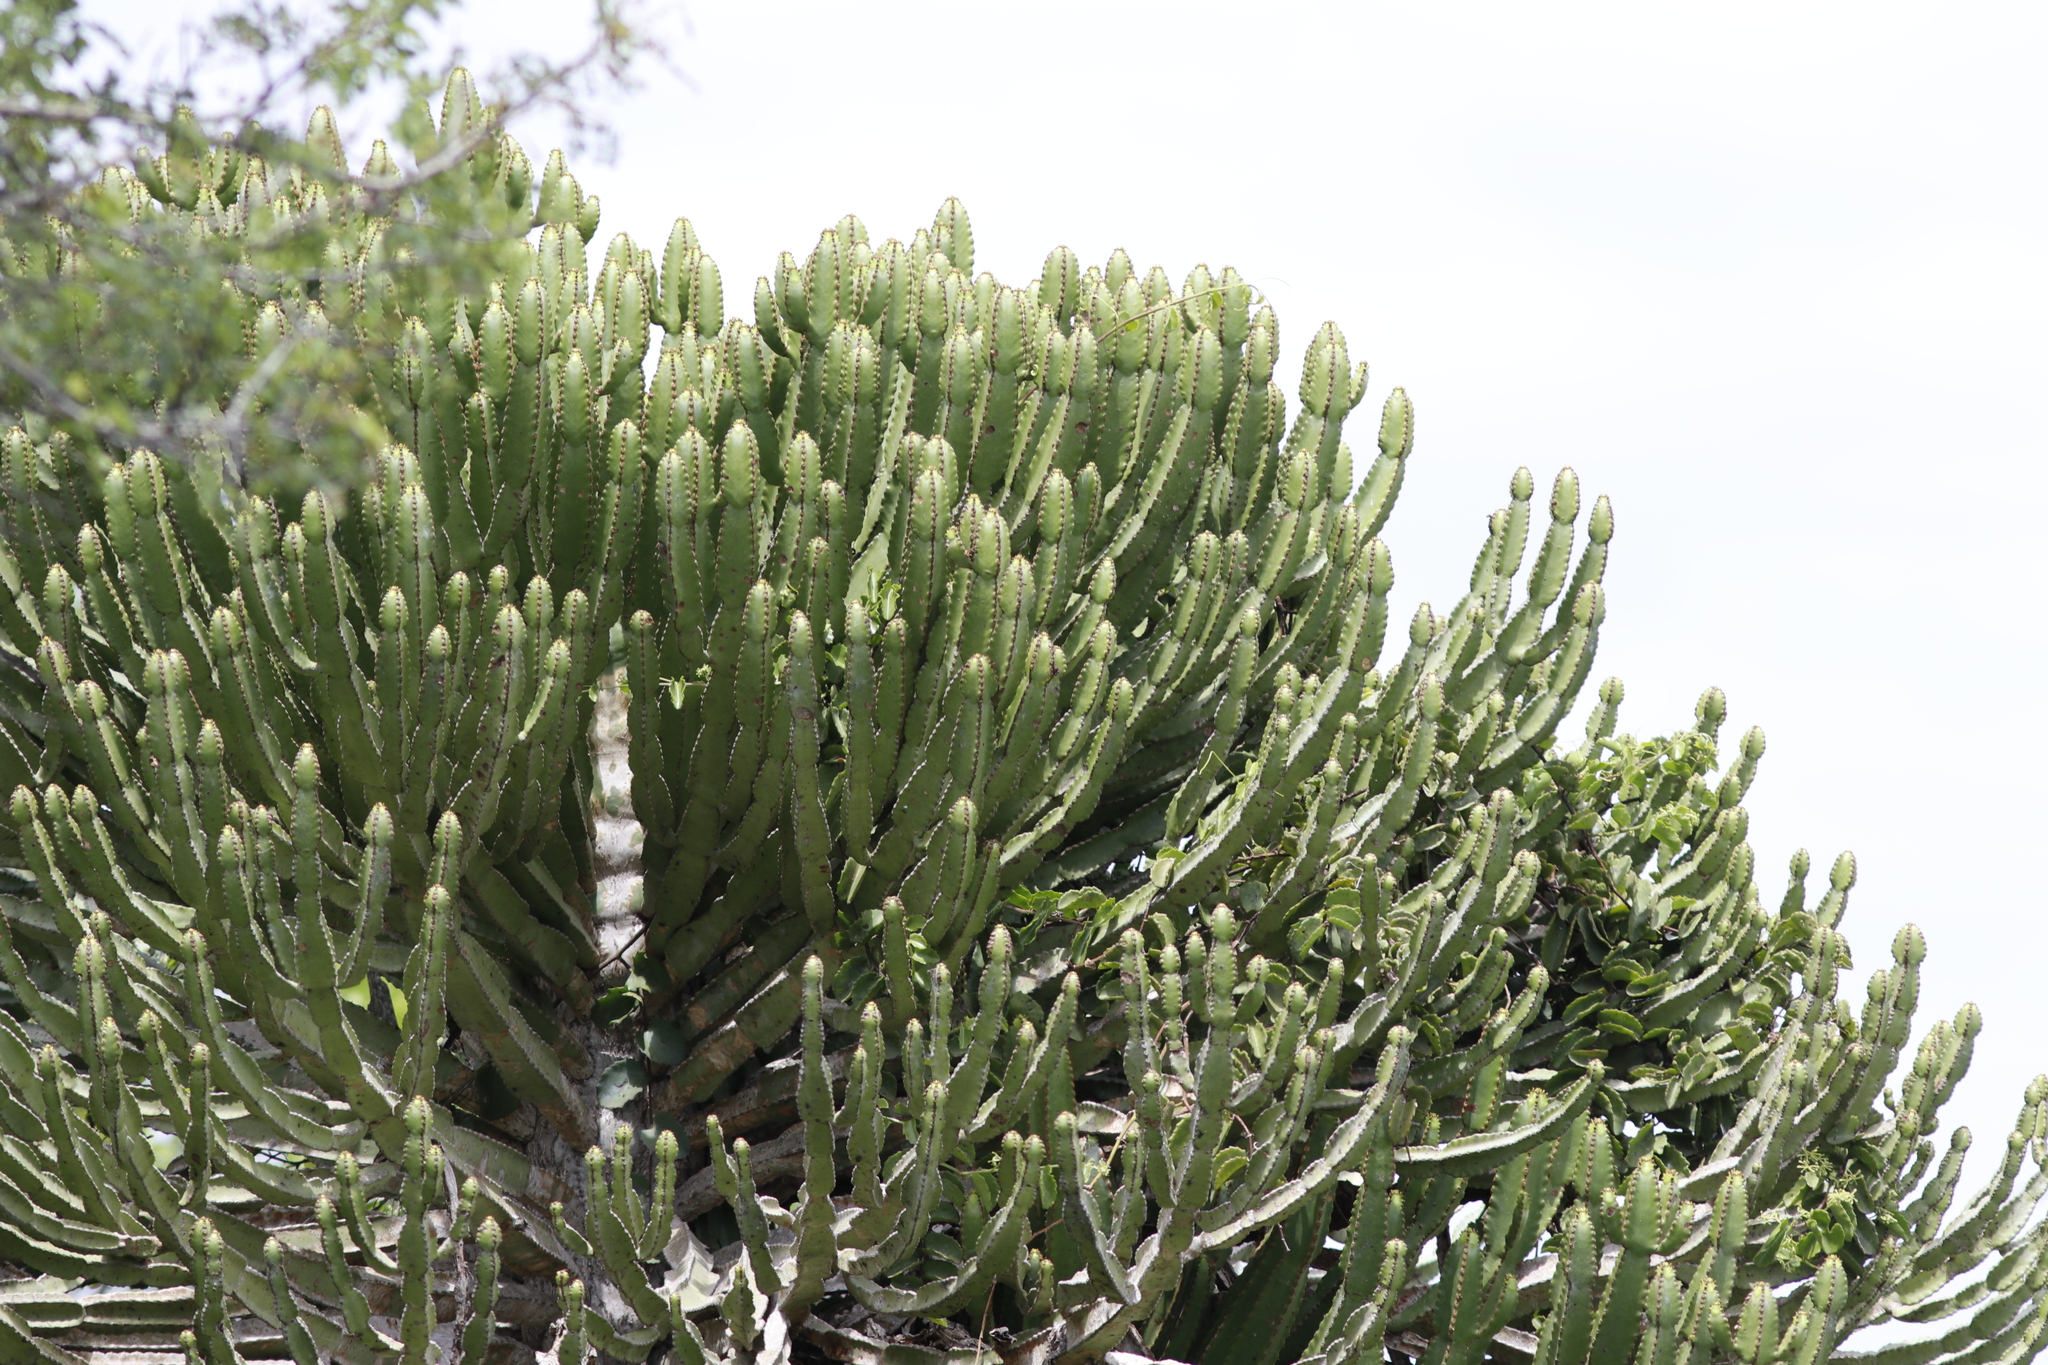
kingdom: Plantae
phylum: Tracheophyta
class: Magnoliopsida
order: Malpighiales
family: Euphorbiaceae
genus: Euphorbia
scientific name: Euphorbia confinalis
